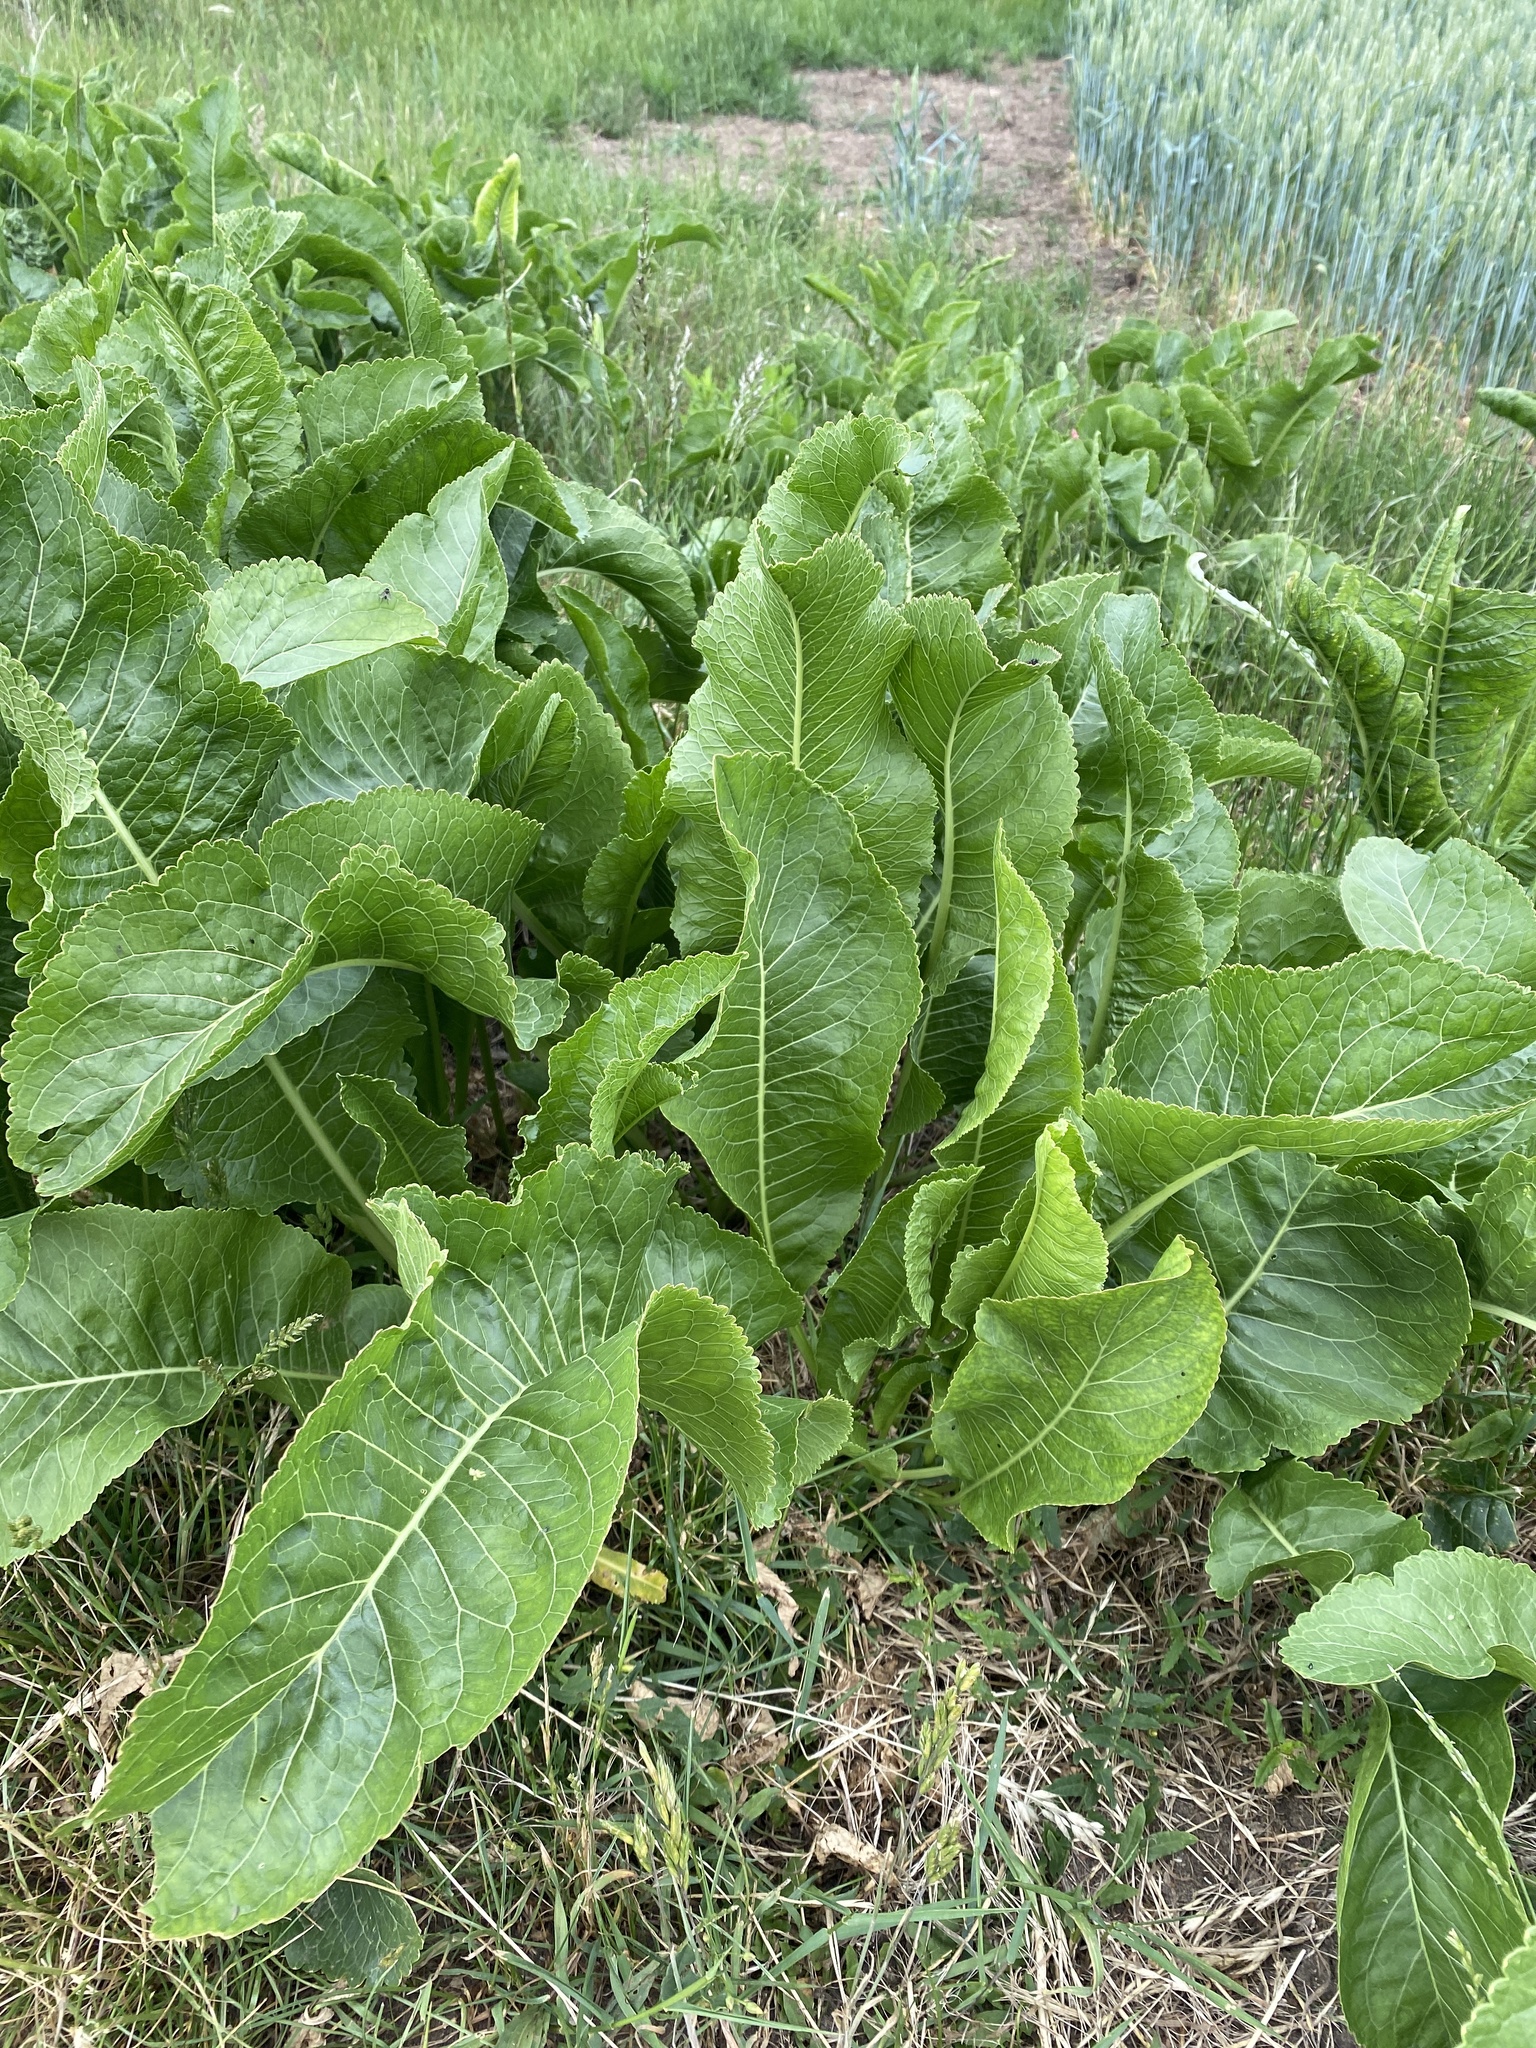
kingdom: Plantae
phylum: Tracheophyta
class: Magnoliopsida
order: Brassicales
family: Brassicaceae
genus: Armoracia
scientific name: Armoracia rusticana
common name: Horseradish
